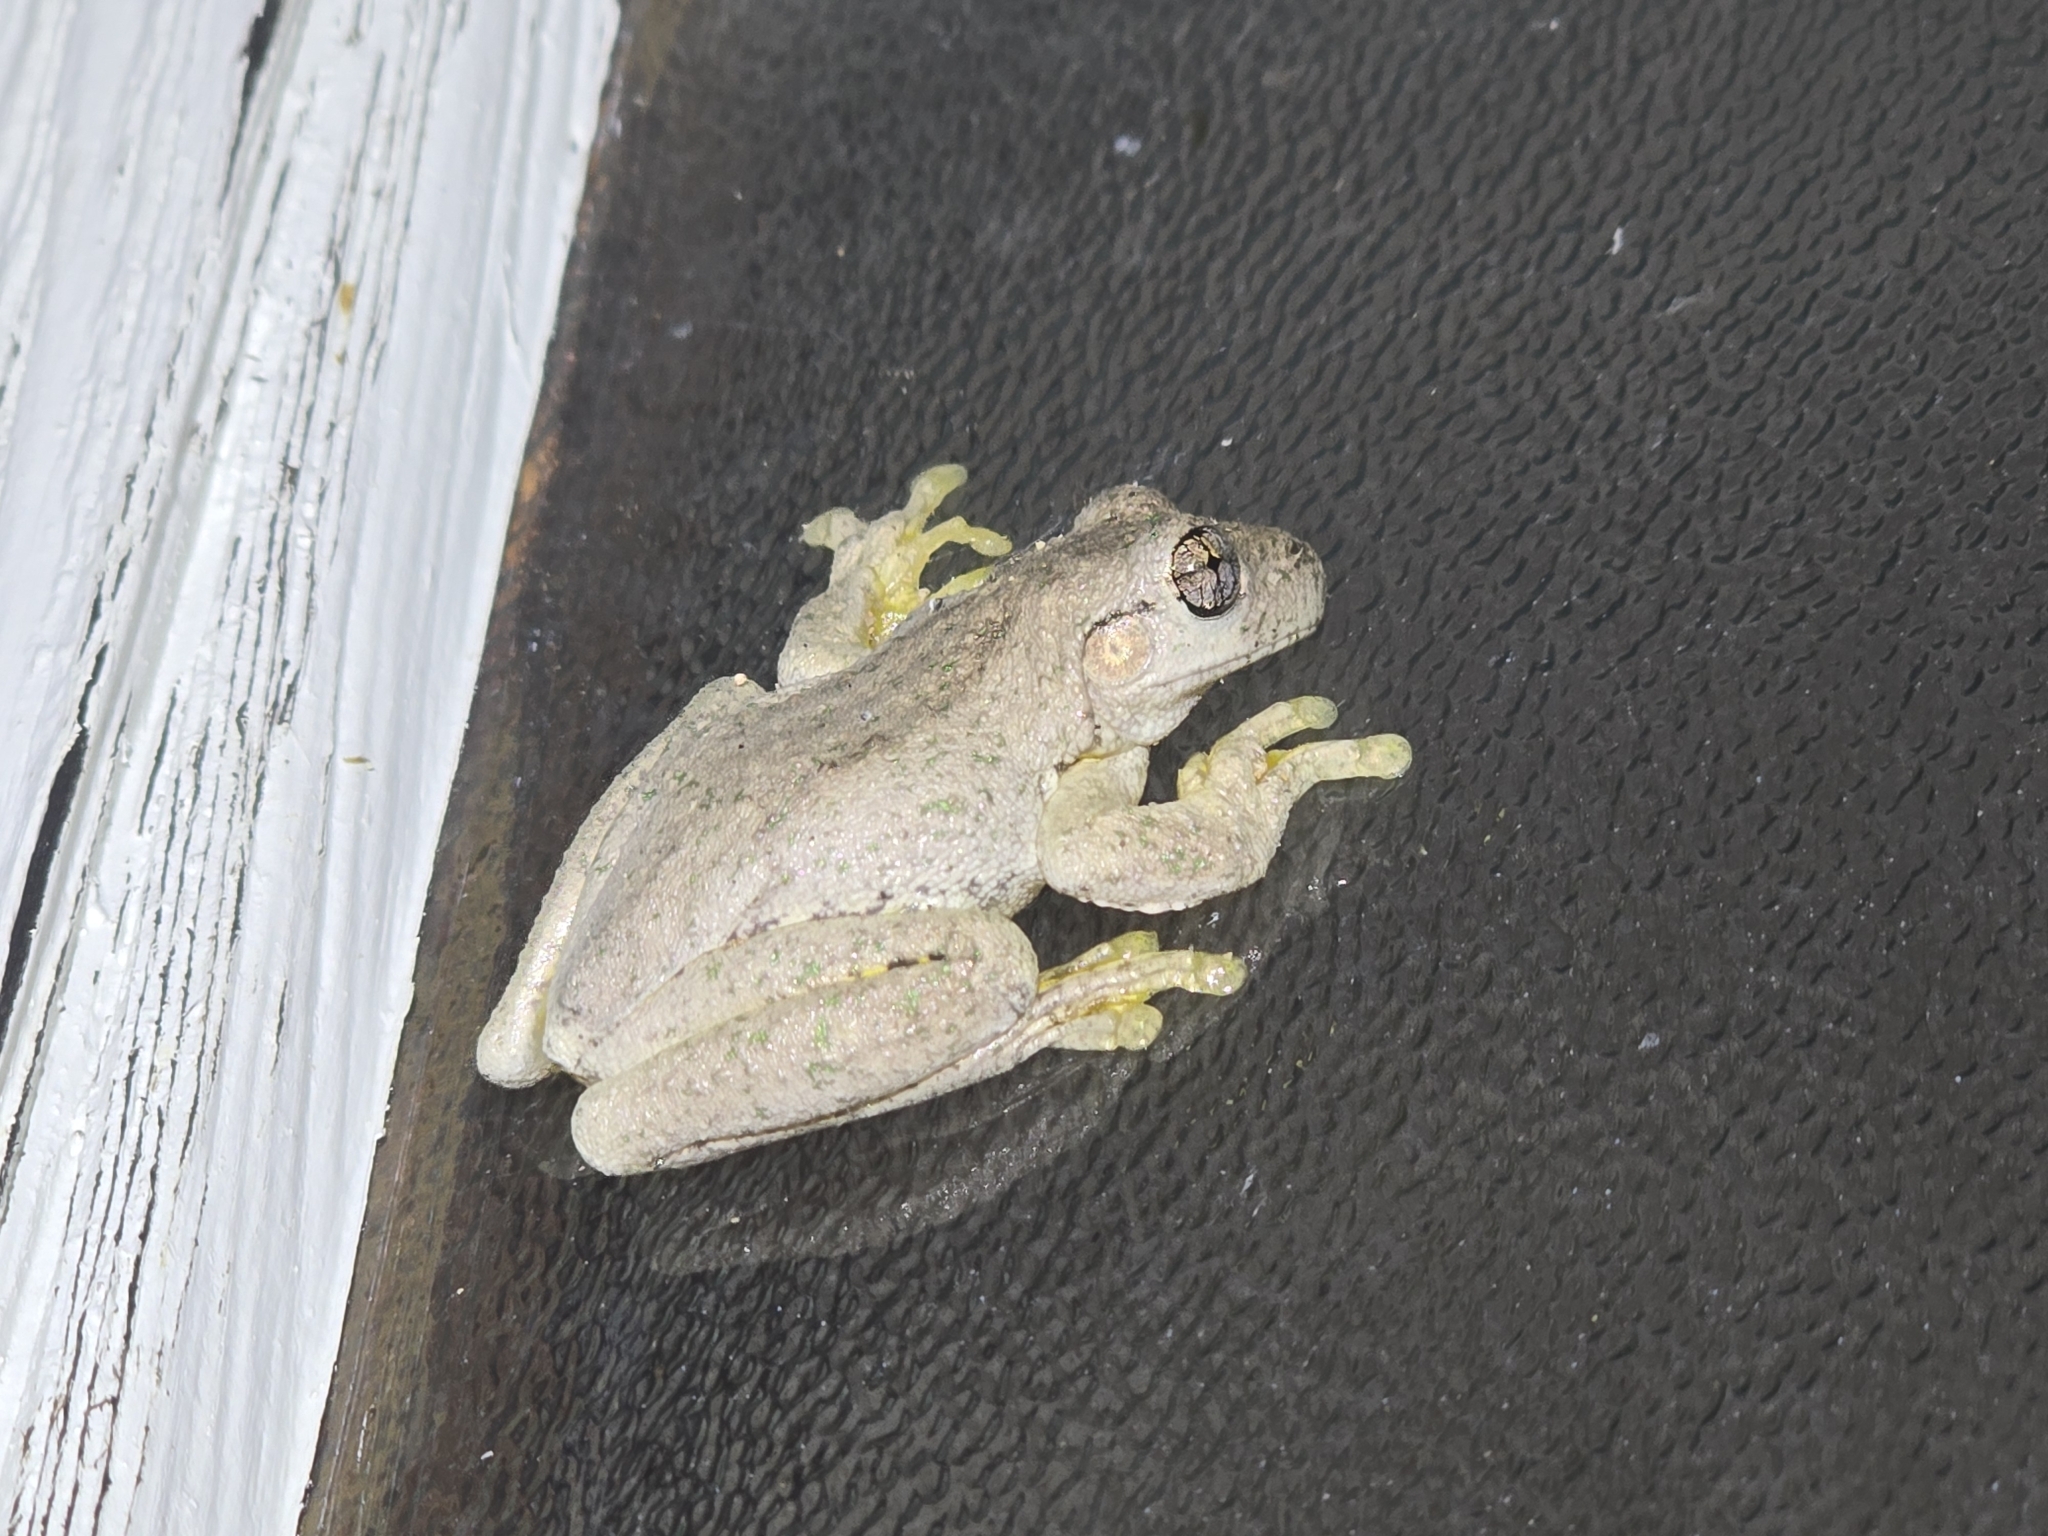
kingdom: Animalia
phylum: Chordata
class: Amphibia
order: Anura
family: Pelodryadidae
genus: Litoria
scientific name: Litoria peronii
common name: Emerald spotted treefrog
